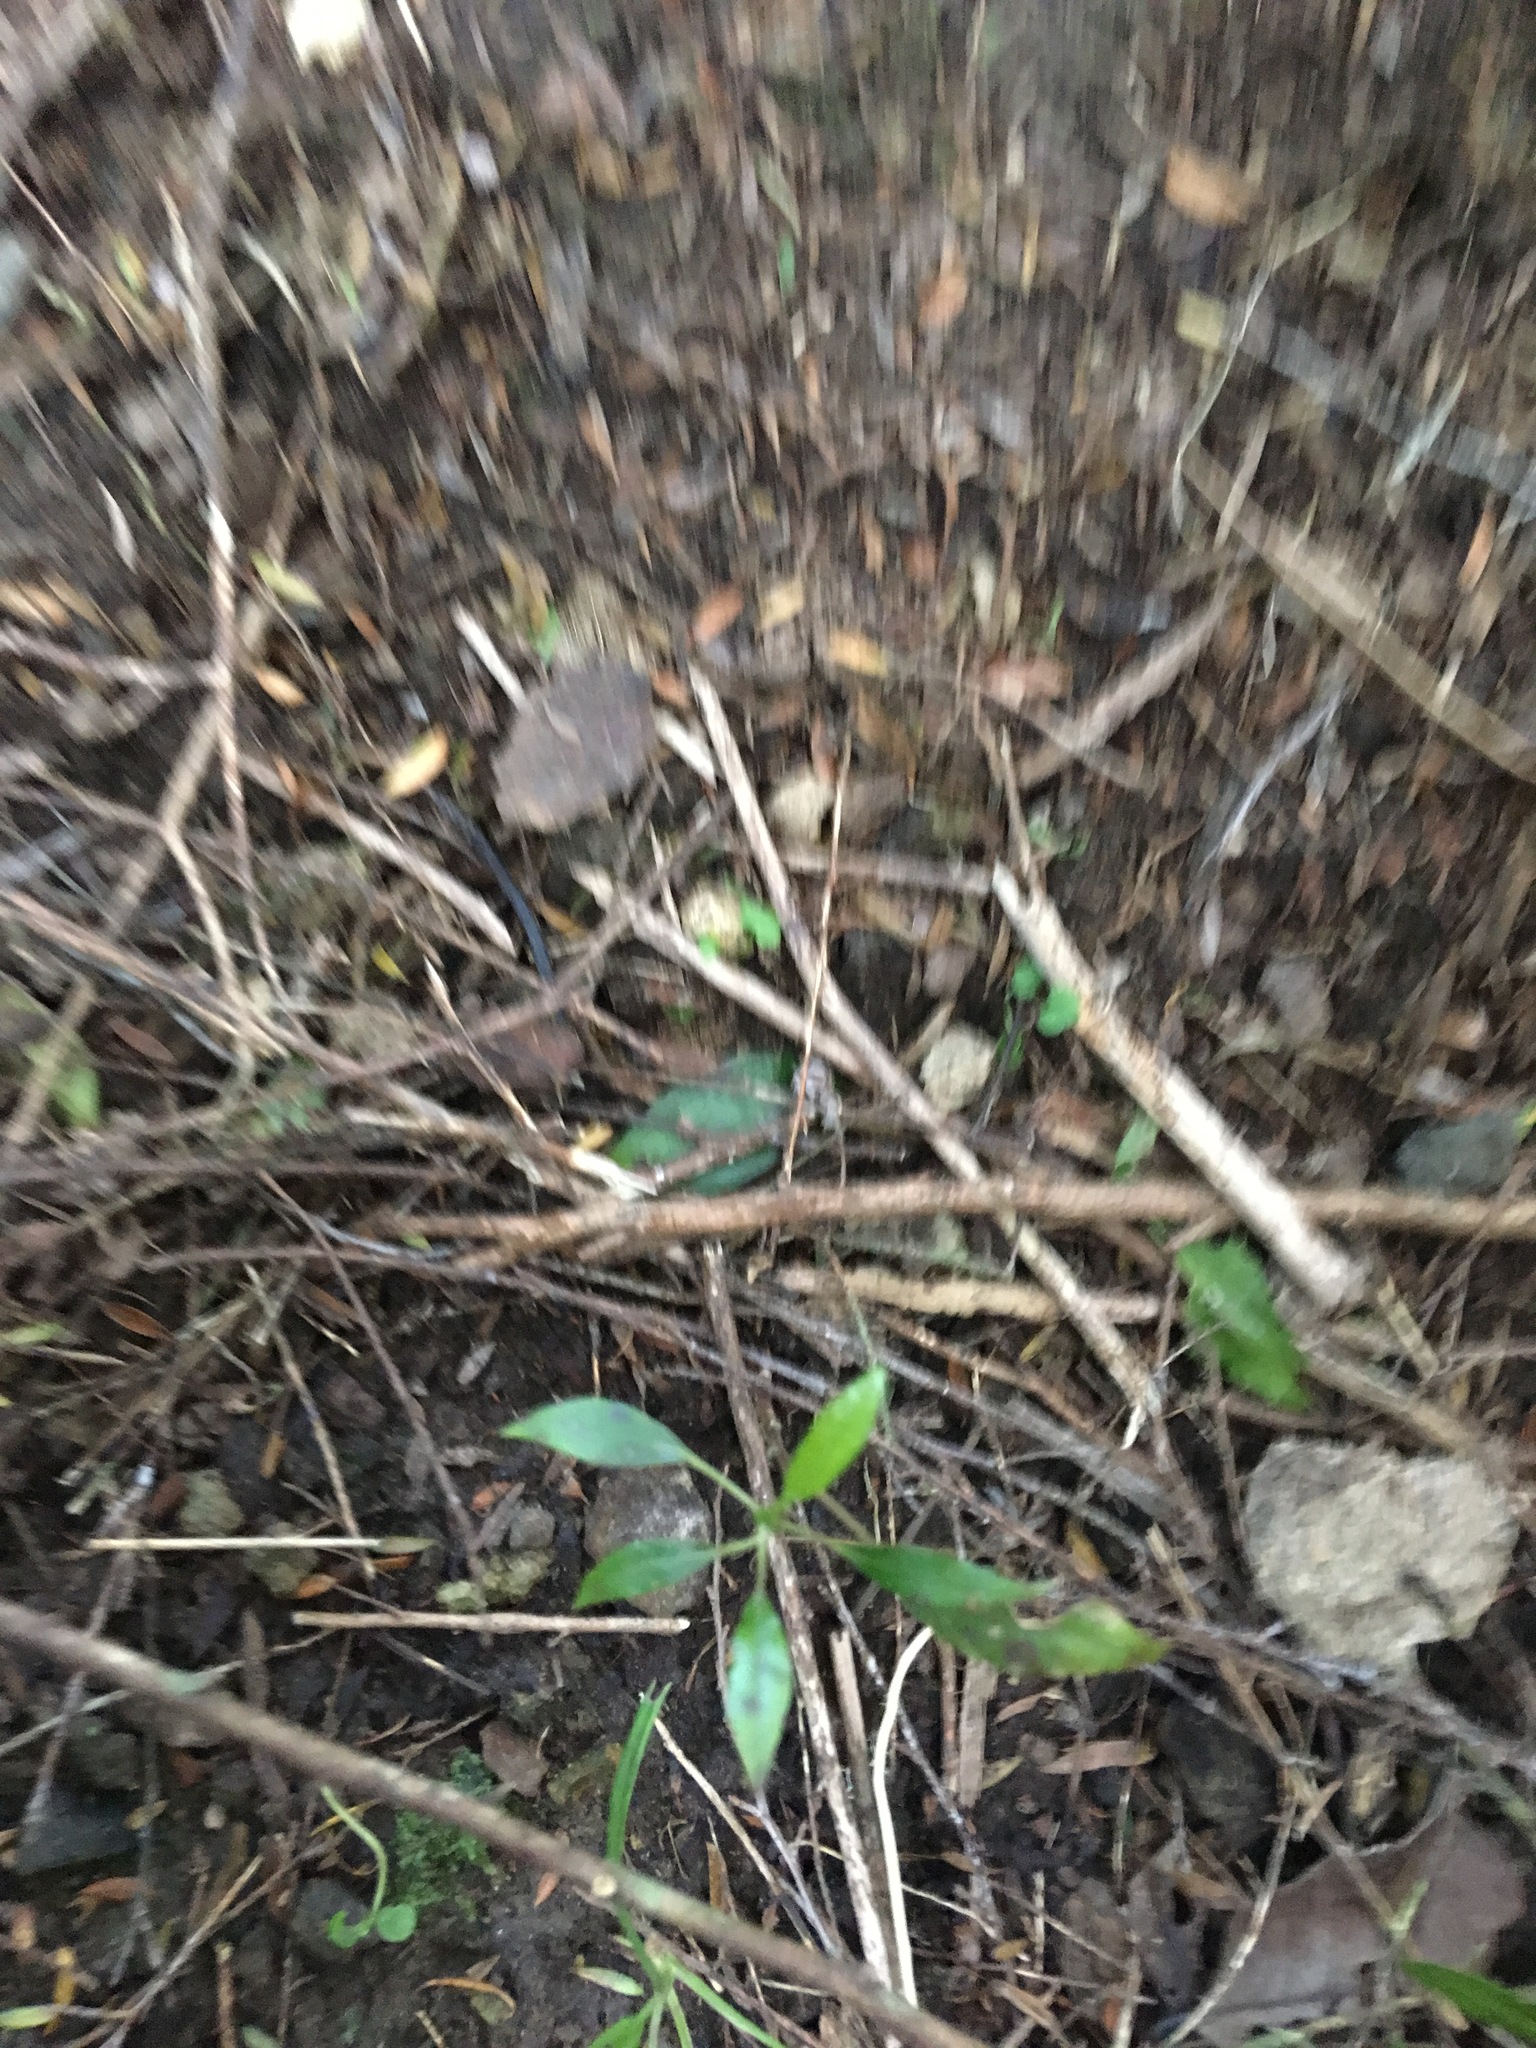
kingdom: Plantae
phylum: Tracheophyta
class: Magnoliopsida
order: Malpighiales
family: Passifloraceae
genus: Passiflora
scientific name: Passiflora tetrandra
